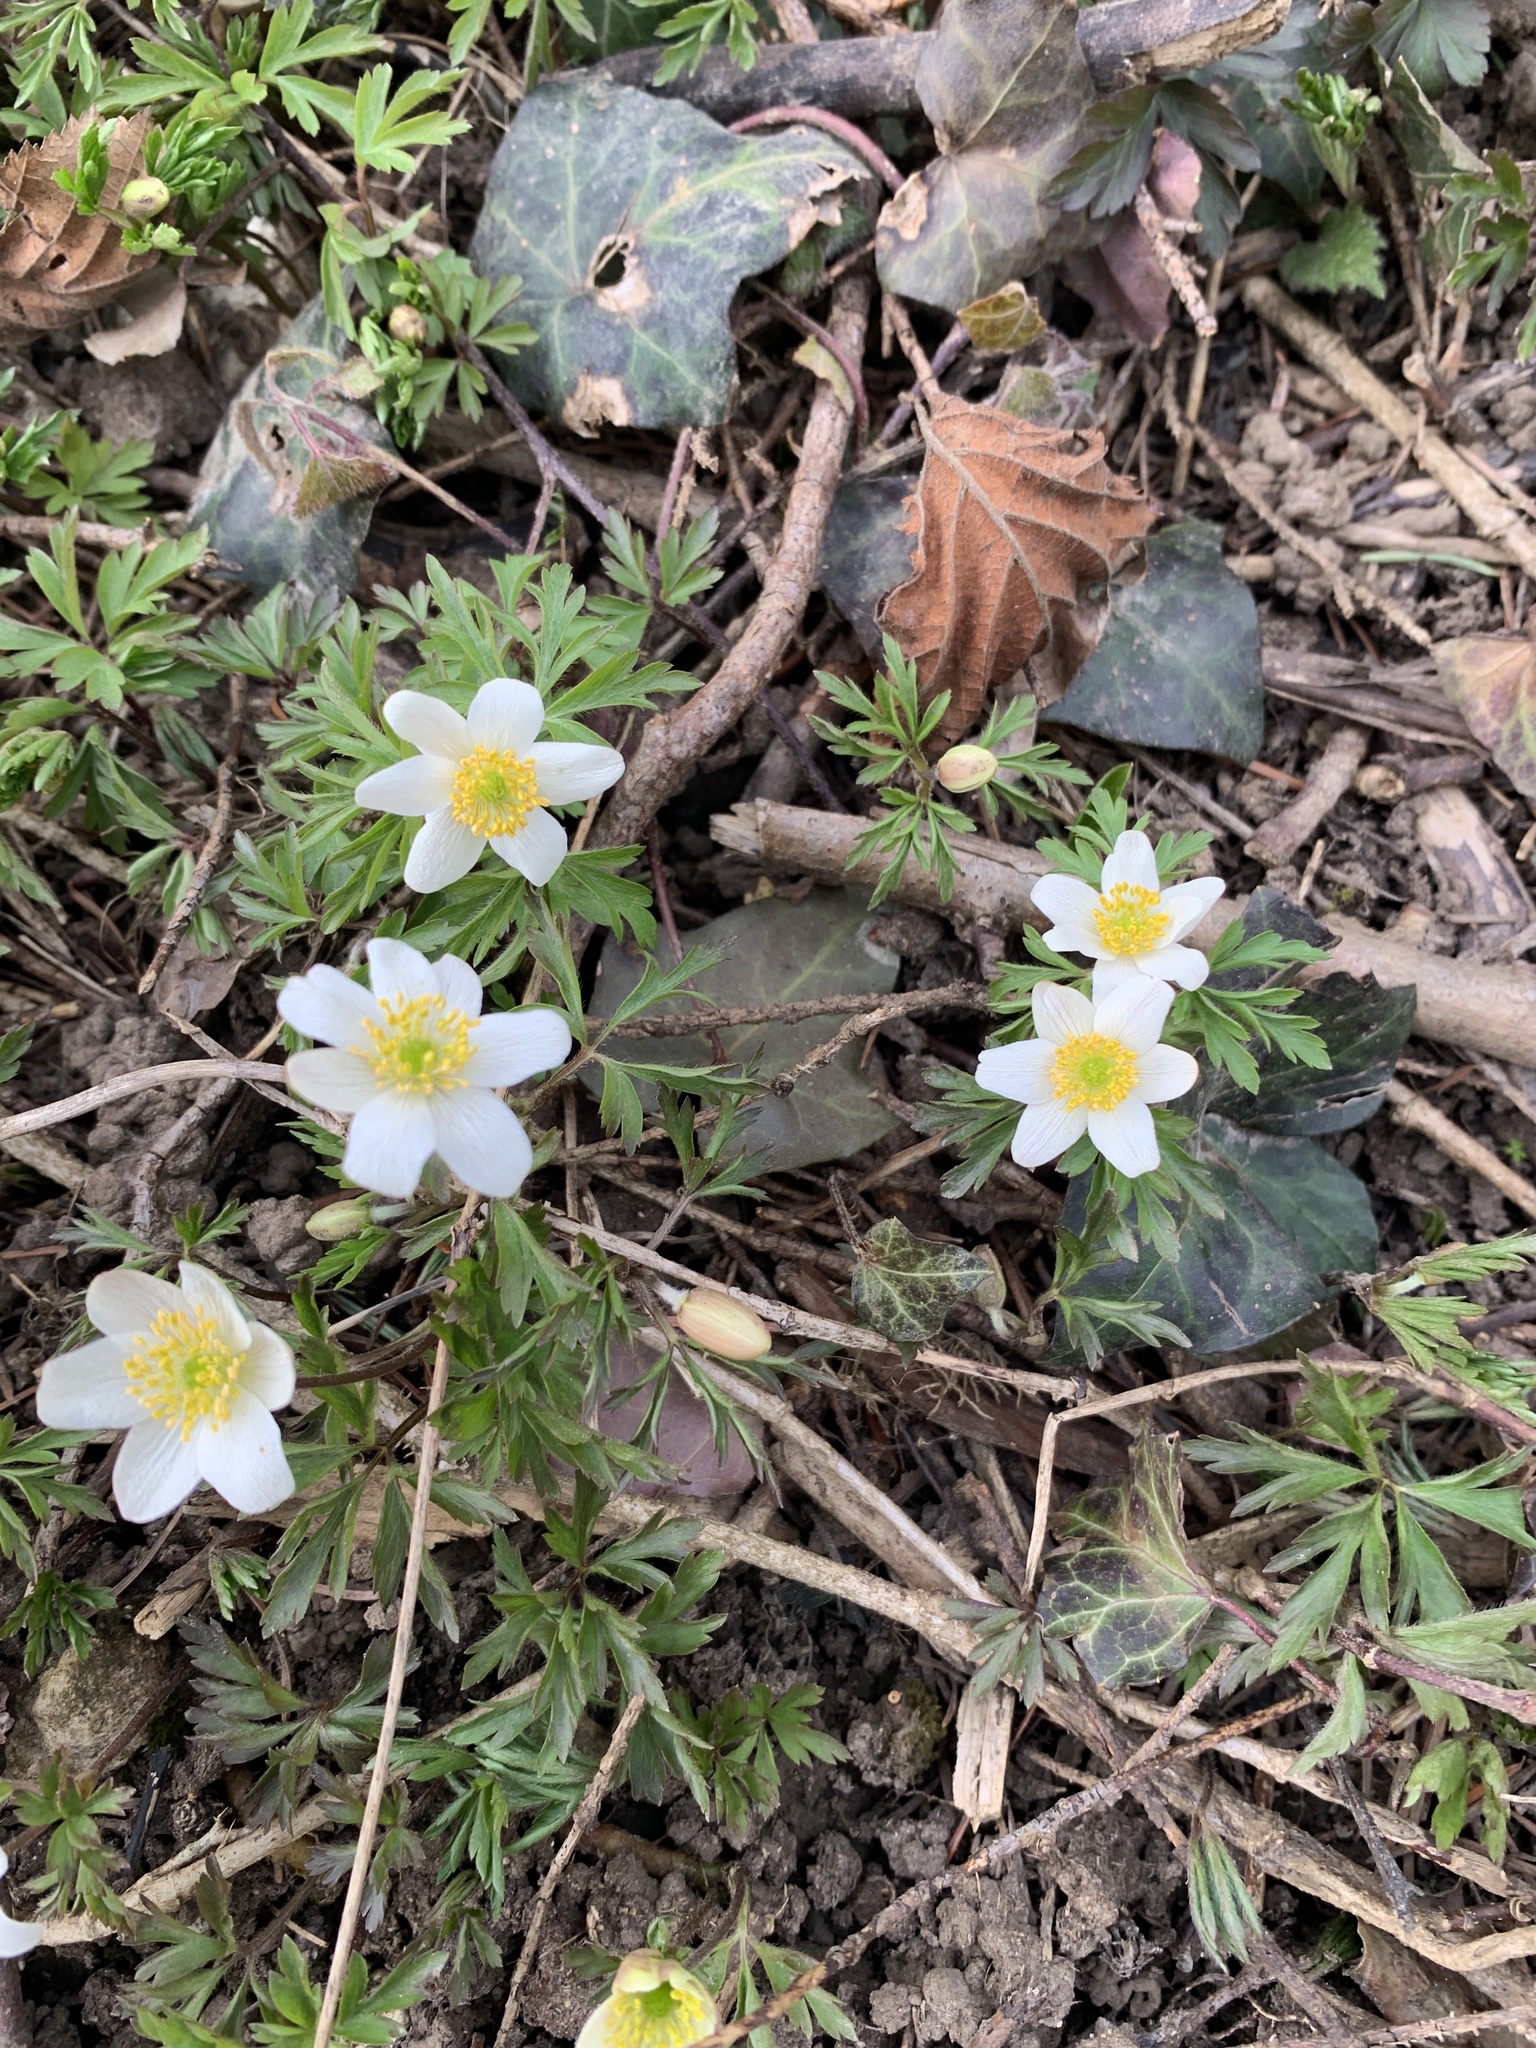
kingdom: Plantae
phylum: Tracheophyta
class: Magnoliopsida
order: Ranunculales
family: Ranunculaceae
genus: Anemone
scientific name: Anemone nemorosa
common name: Wood anemone
